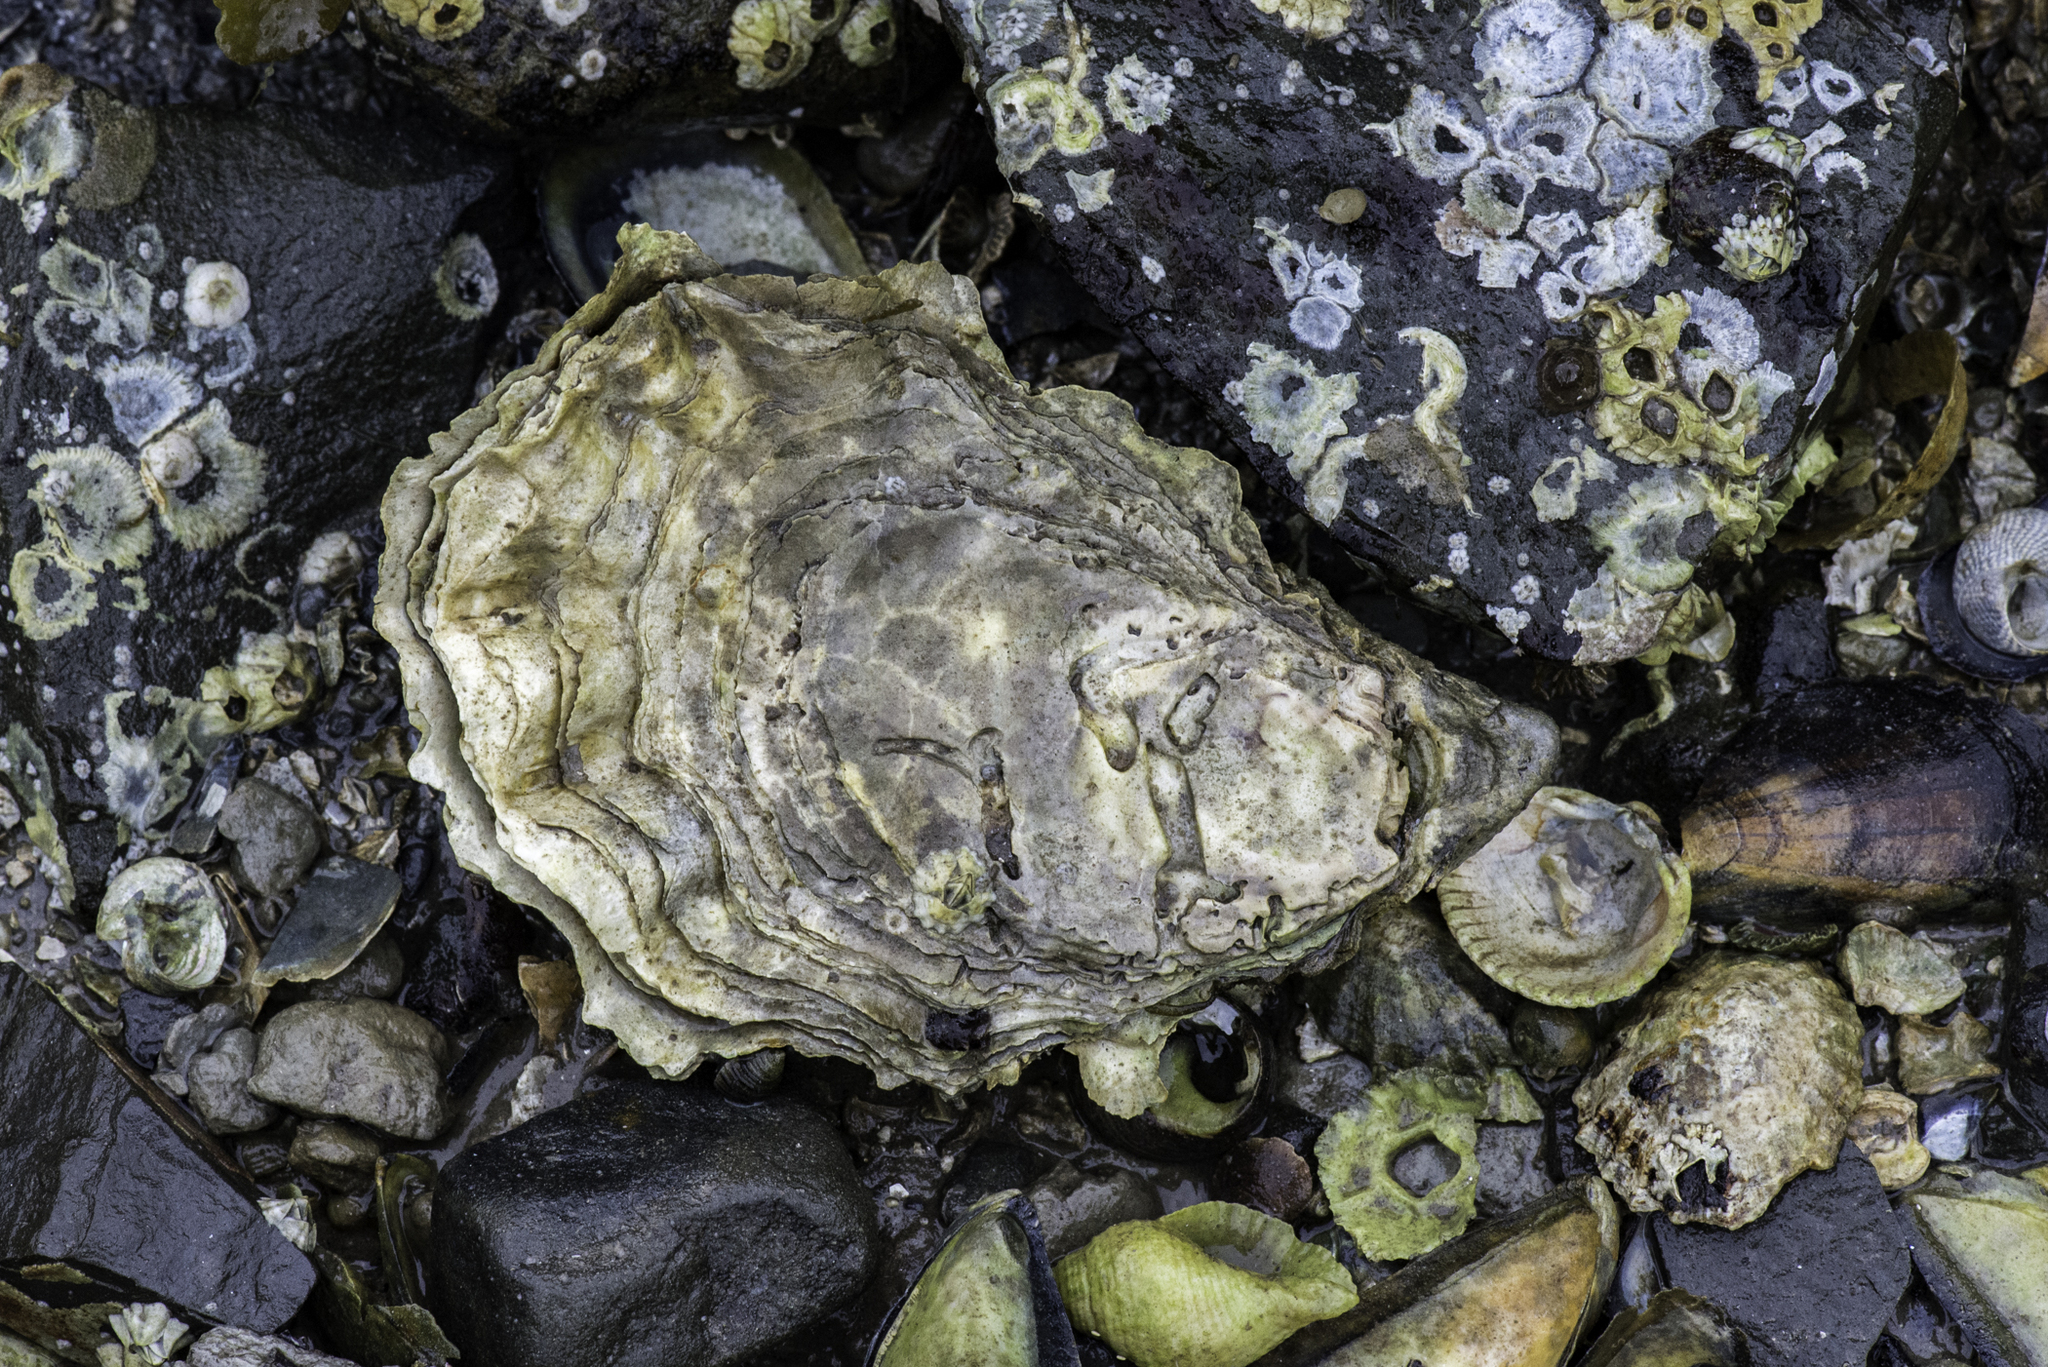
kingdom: Animalia
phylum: Mollusca
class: Bivalvia
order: Ostreida
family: Ostreidae
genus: Magallana
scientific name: Magallana gigas
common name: Pacific oyster
